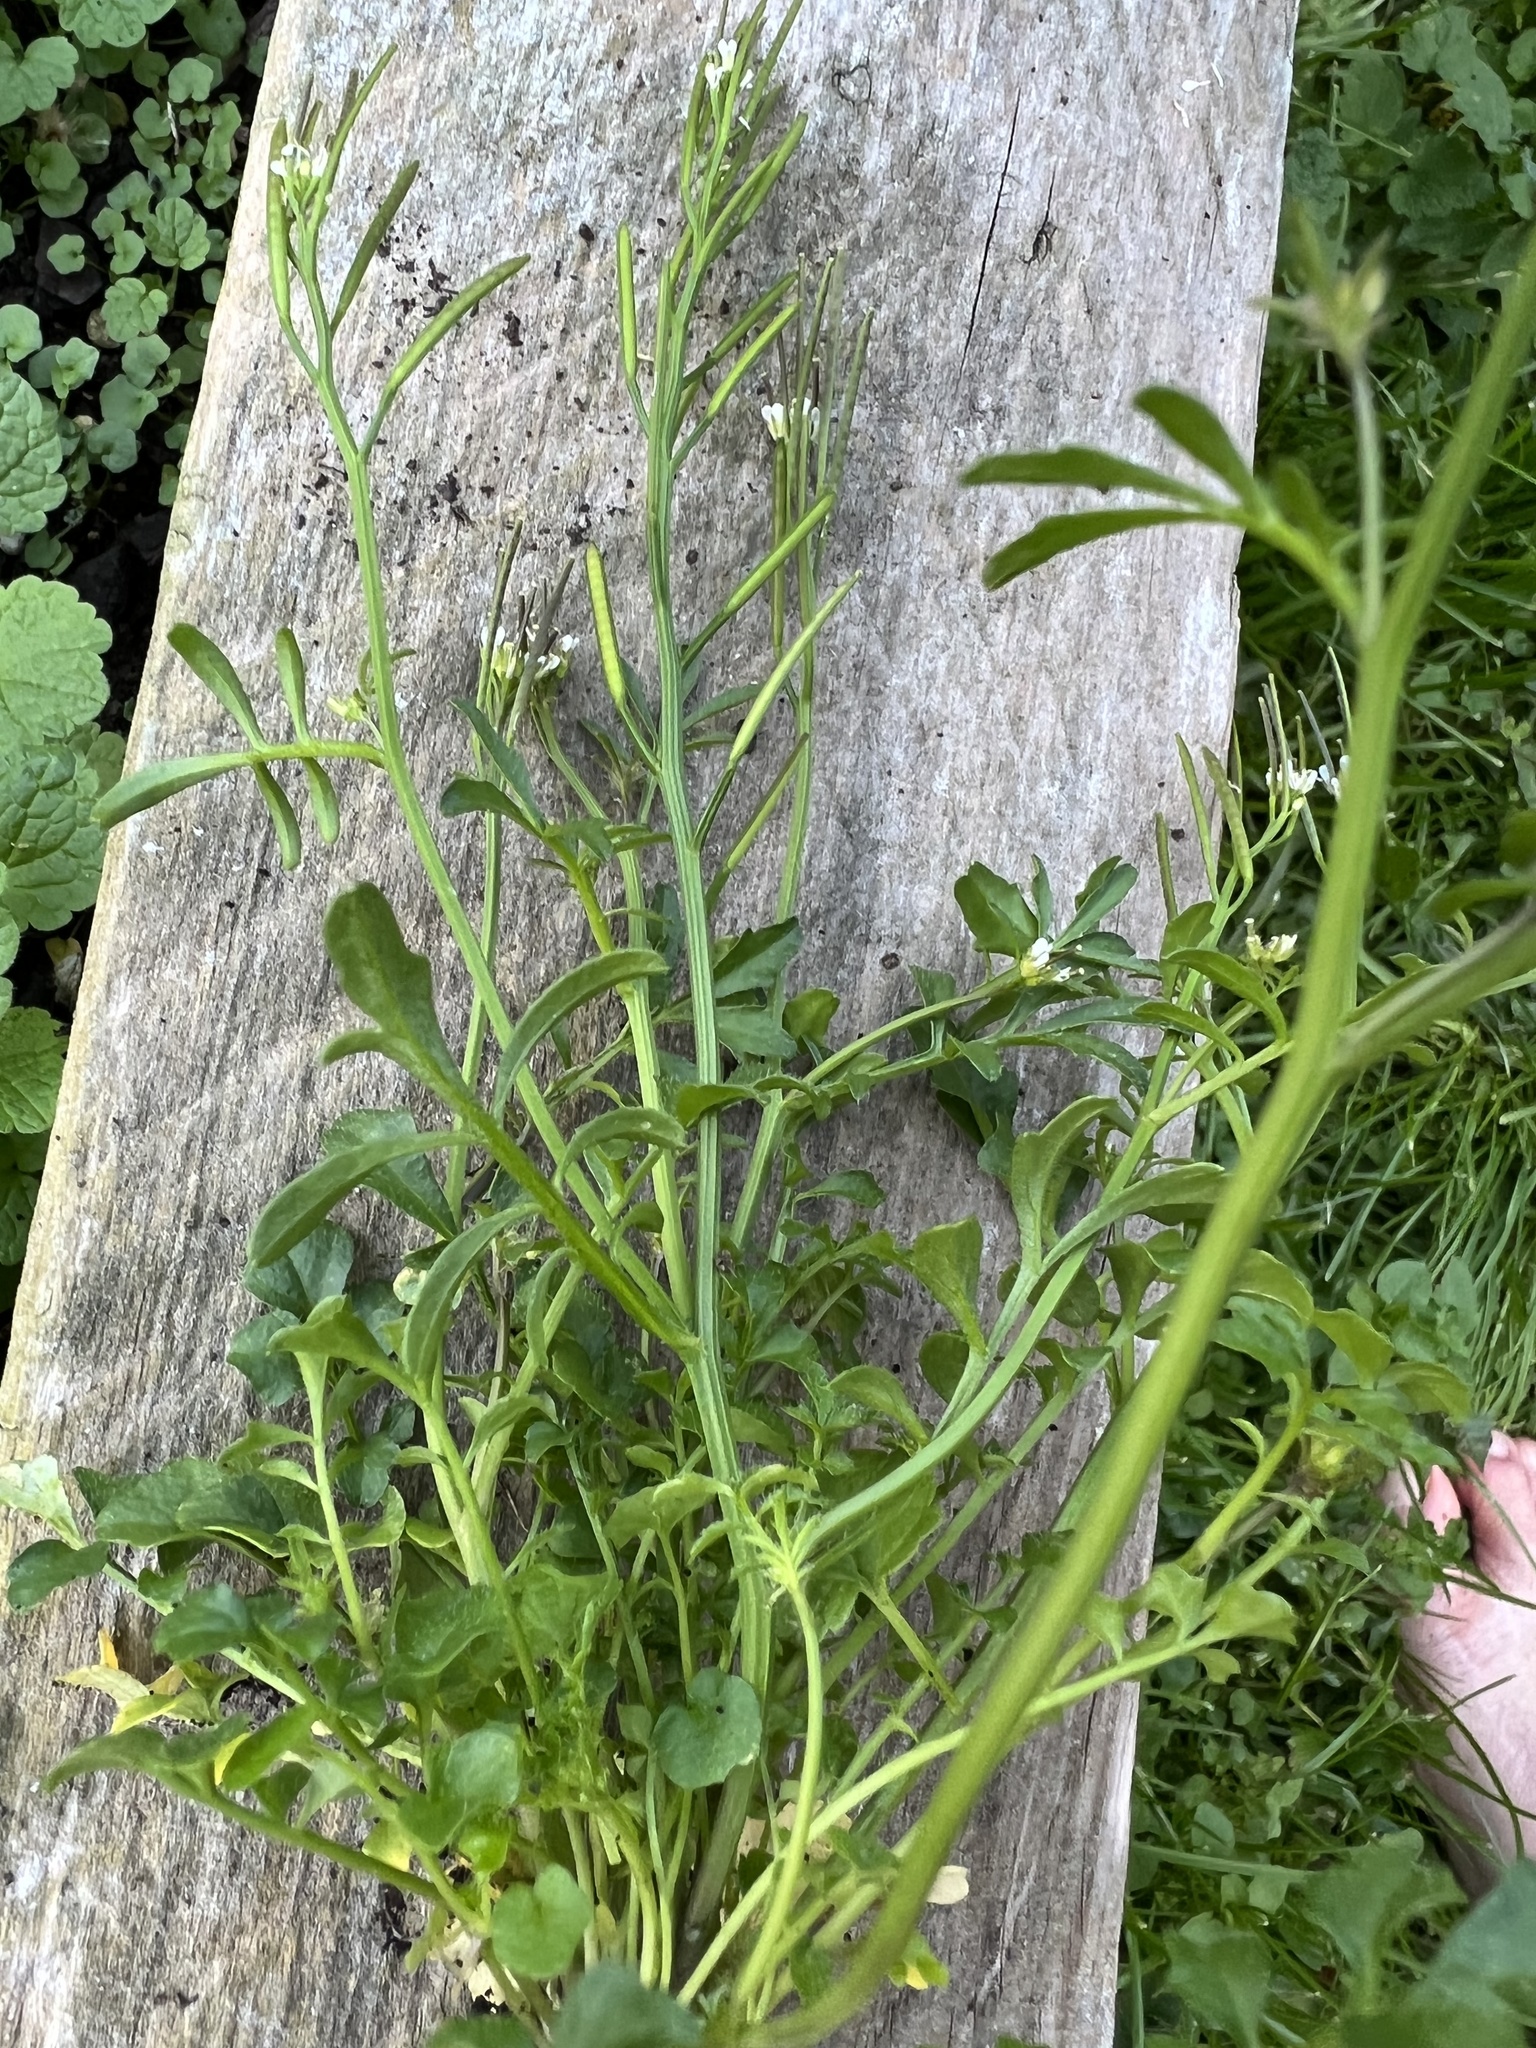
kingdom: Plantae
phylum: Tracheophyta
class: Magnoliopsida
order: Brassicales
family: Brassicaceae
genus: Cardamine
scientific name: Cardamine flexuosa
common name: Woodland bittercress
